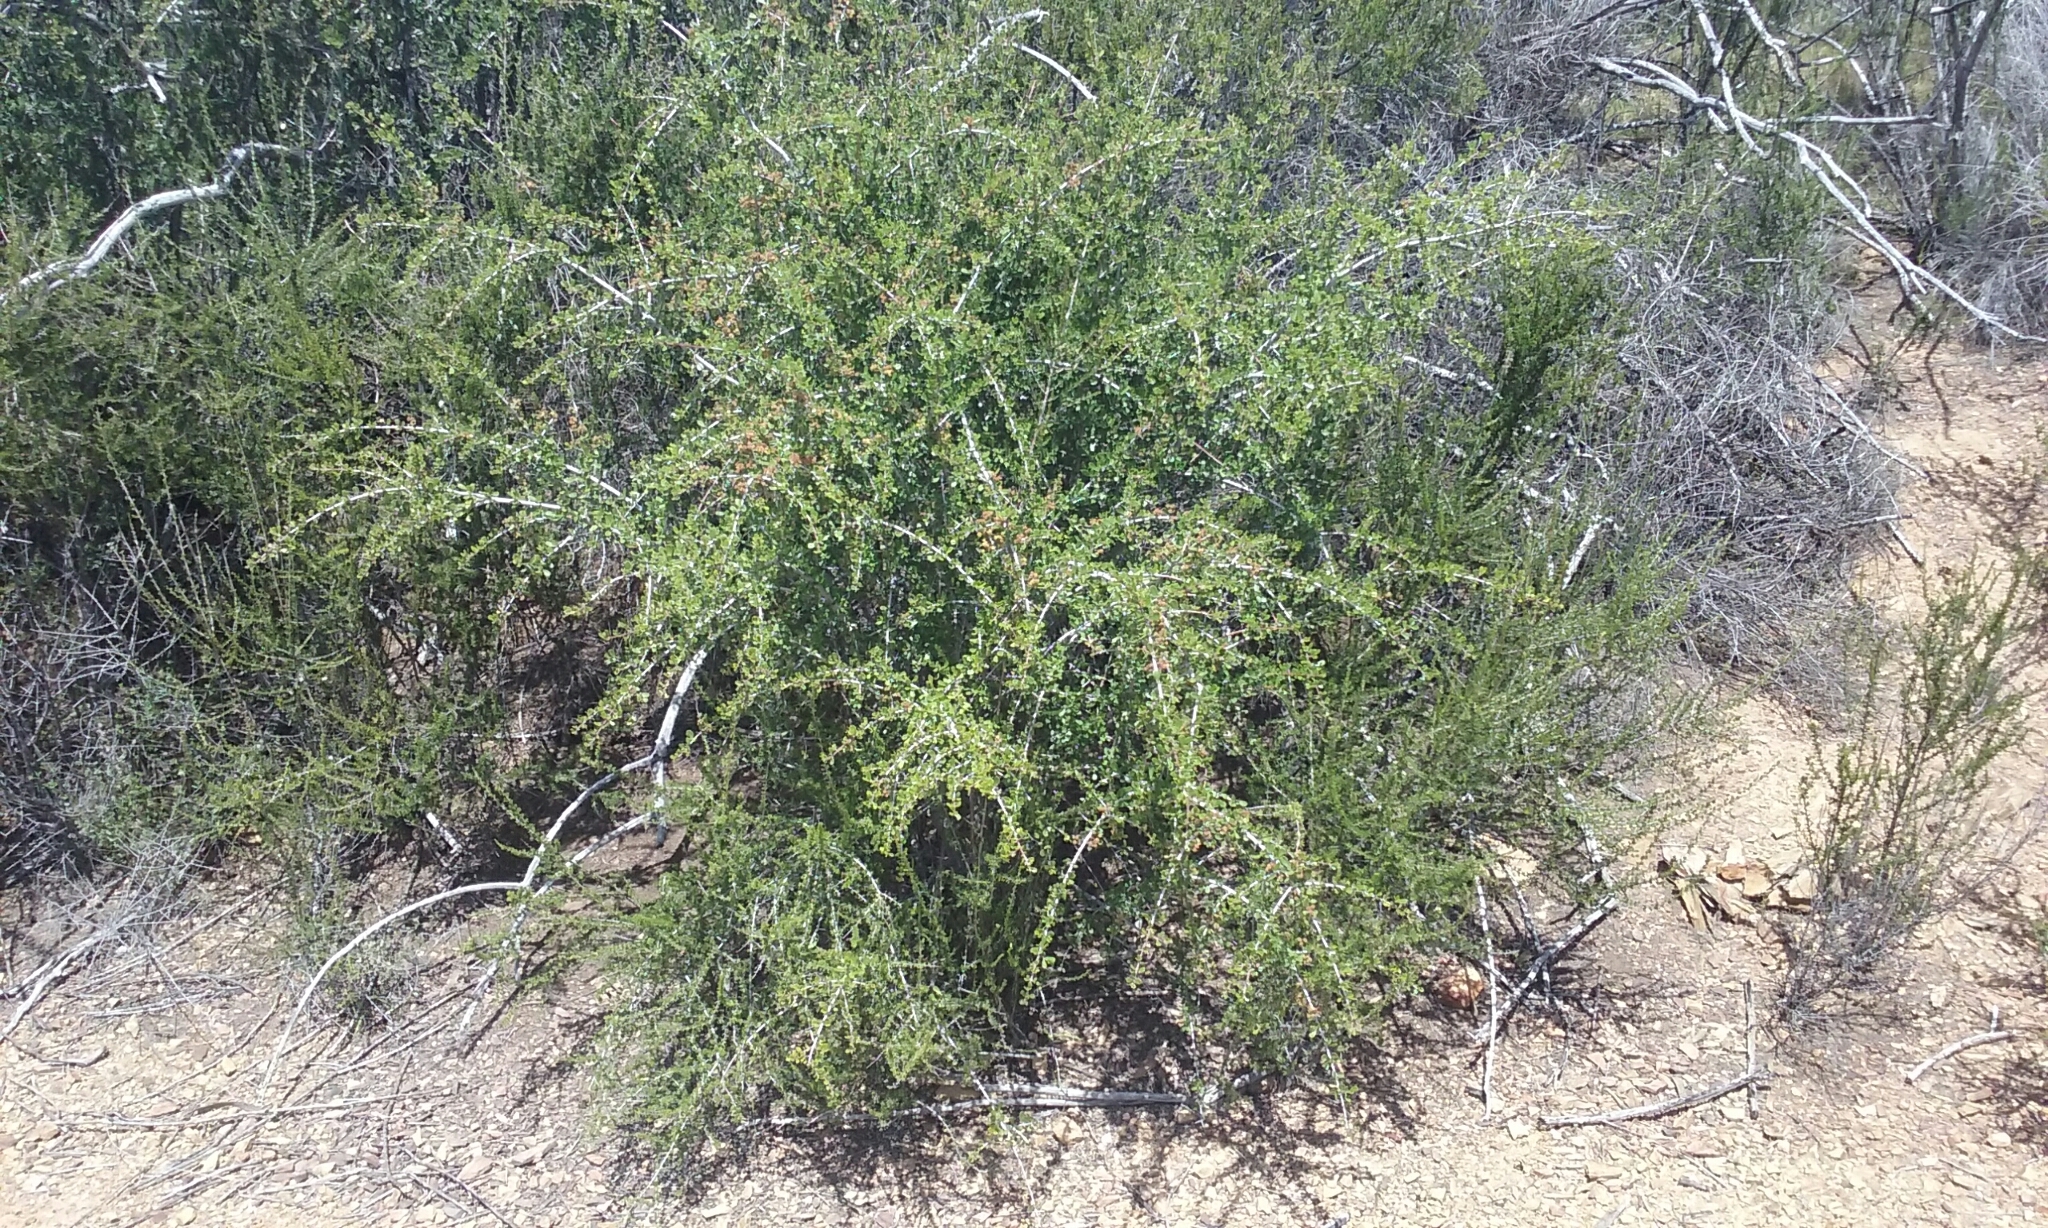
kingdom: Plantae
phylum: Tracheophyta
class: Magnoliopsida
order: Rosales
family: Rhamnaceae
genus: Ceanothus
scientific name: Ceanothus cuneatus
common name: Cuneate ceanothus
